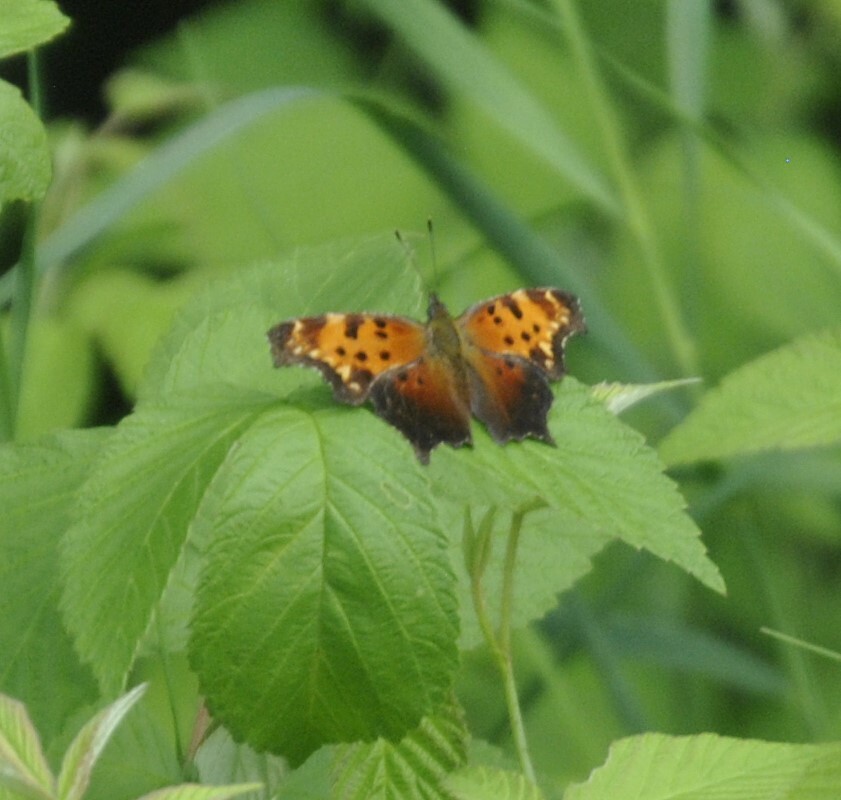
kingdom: Animalia
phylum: Arthropoda
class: Insecta
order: Lepidoptera
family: Nymphalidae
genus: Polygonia
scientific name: Polygonia progne
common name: Gray comma
